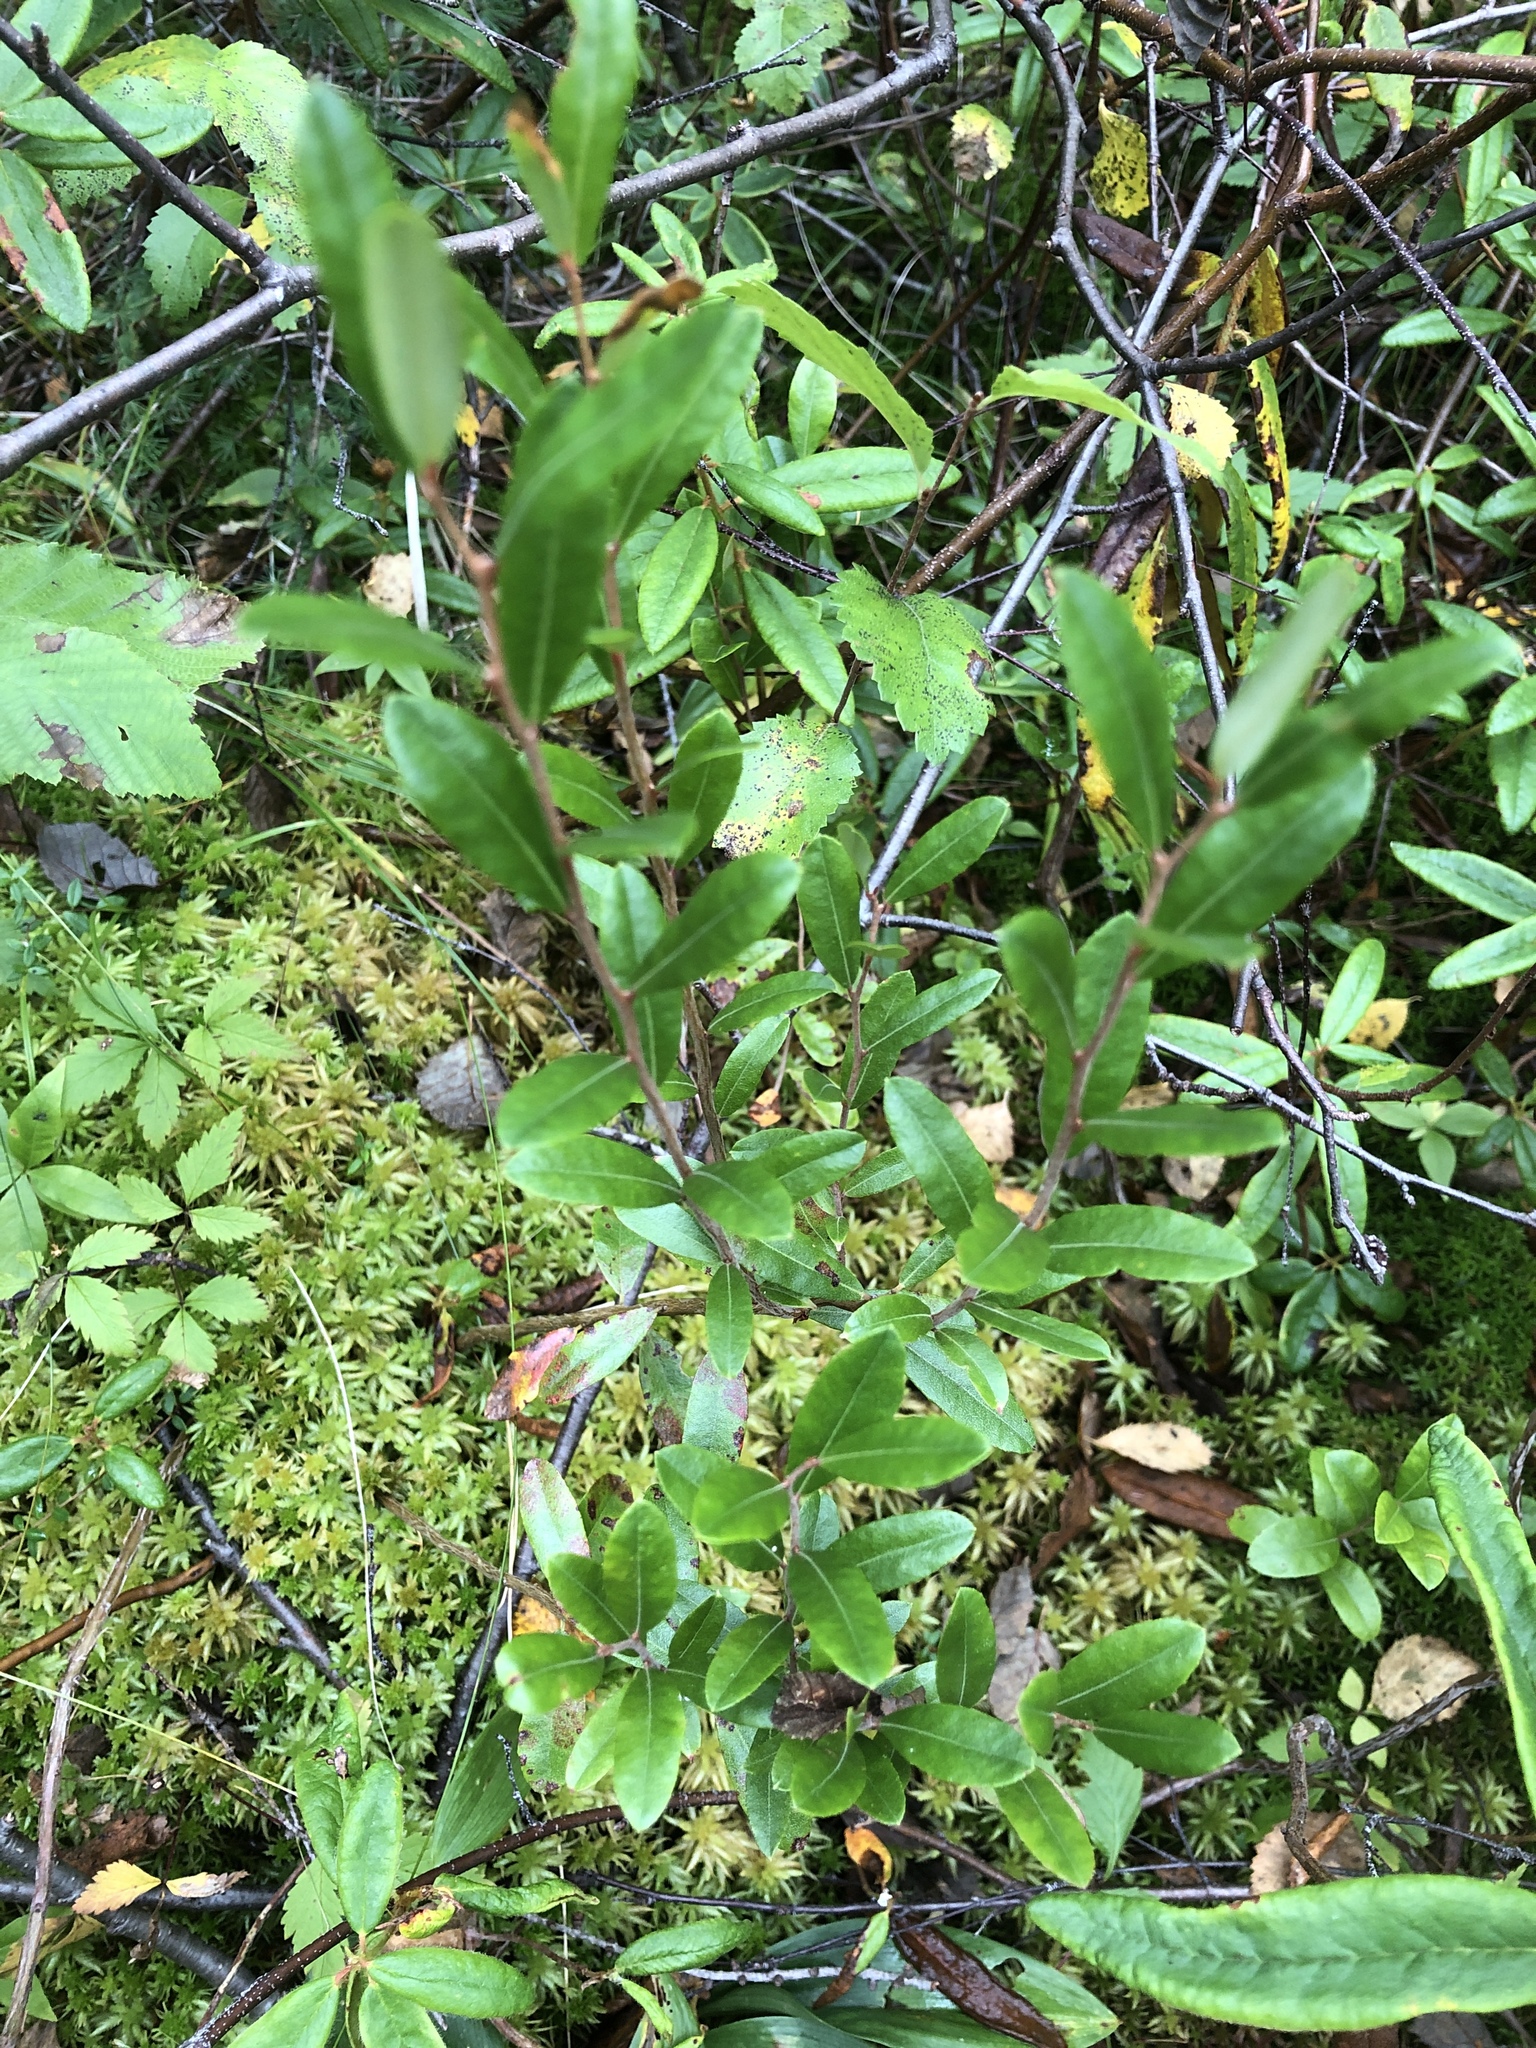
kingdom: Plantae
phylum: Tracheophyta
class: Magnoliopsida
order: Ericales
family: Ericaceae
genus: Chamaedaphne
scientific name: Chamaedaphne calyculata
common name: Leatherleaf
